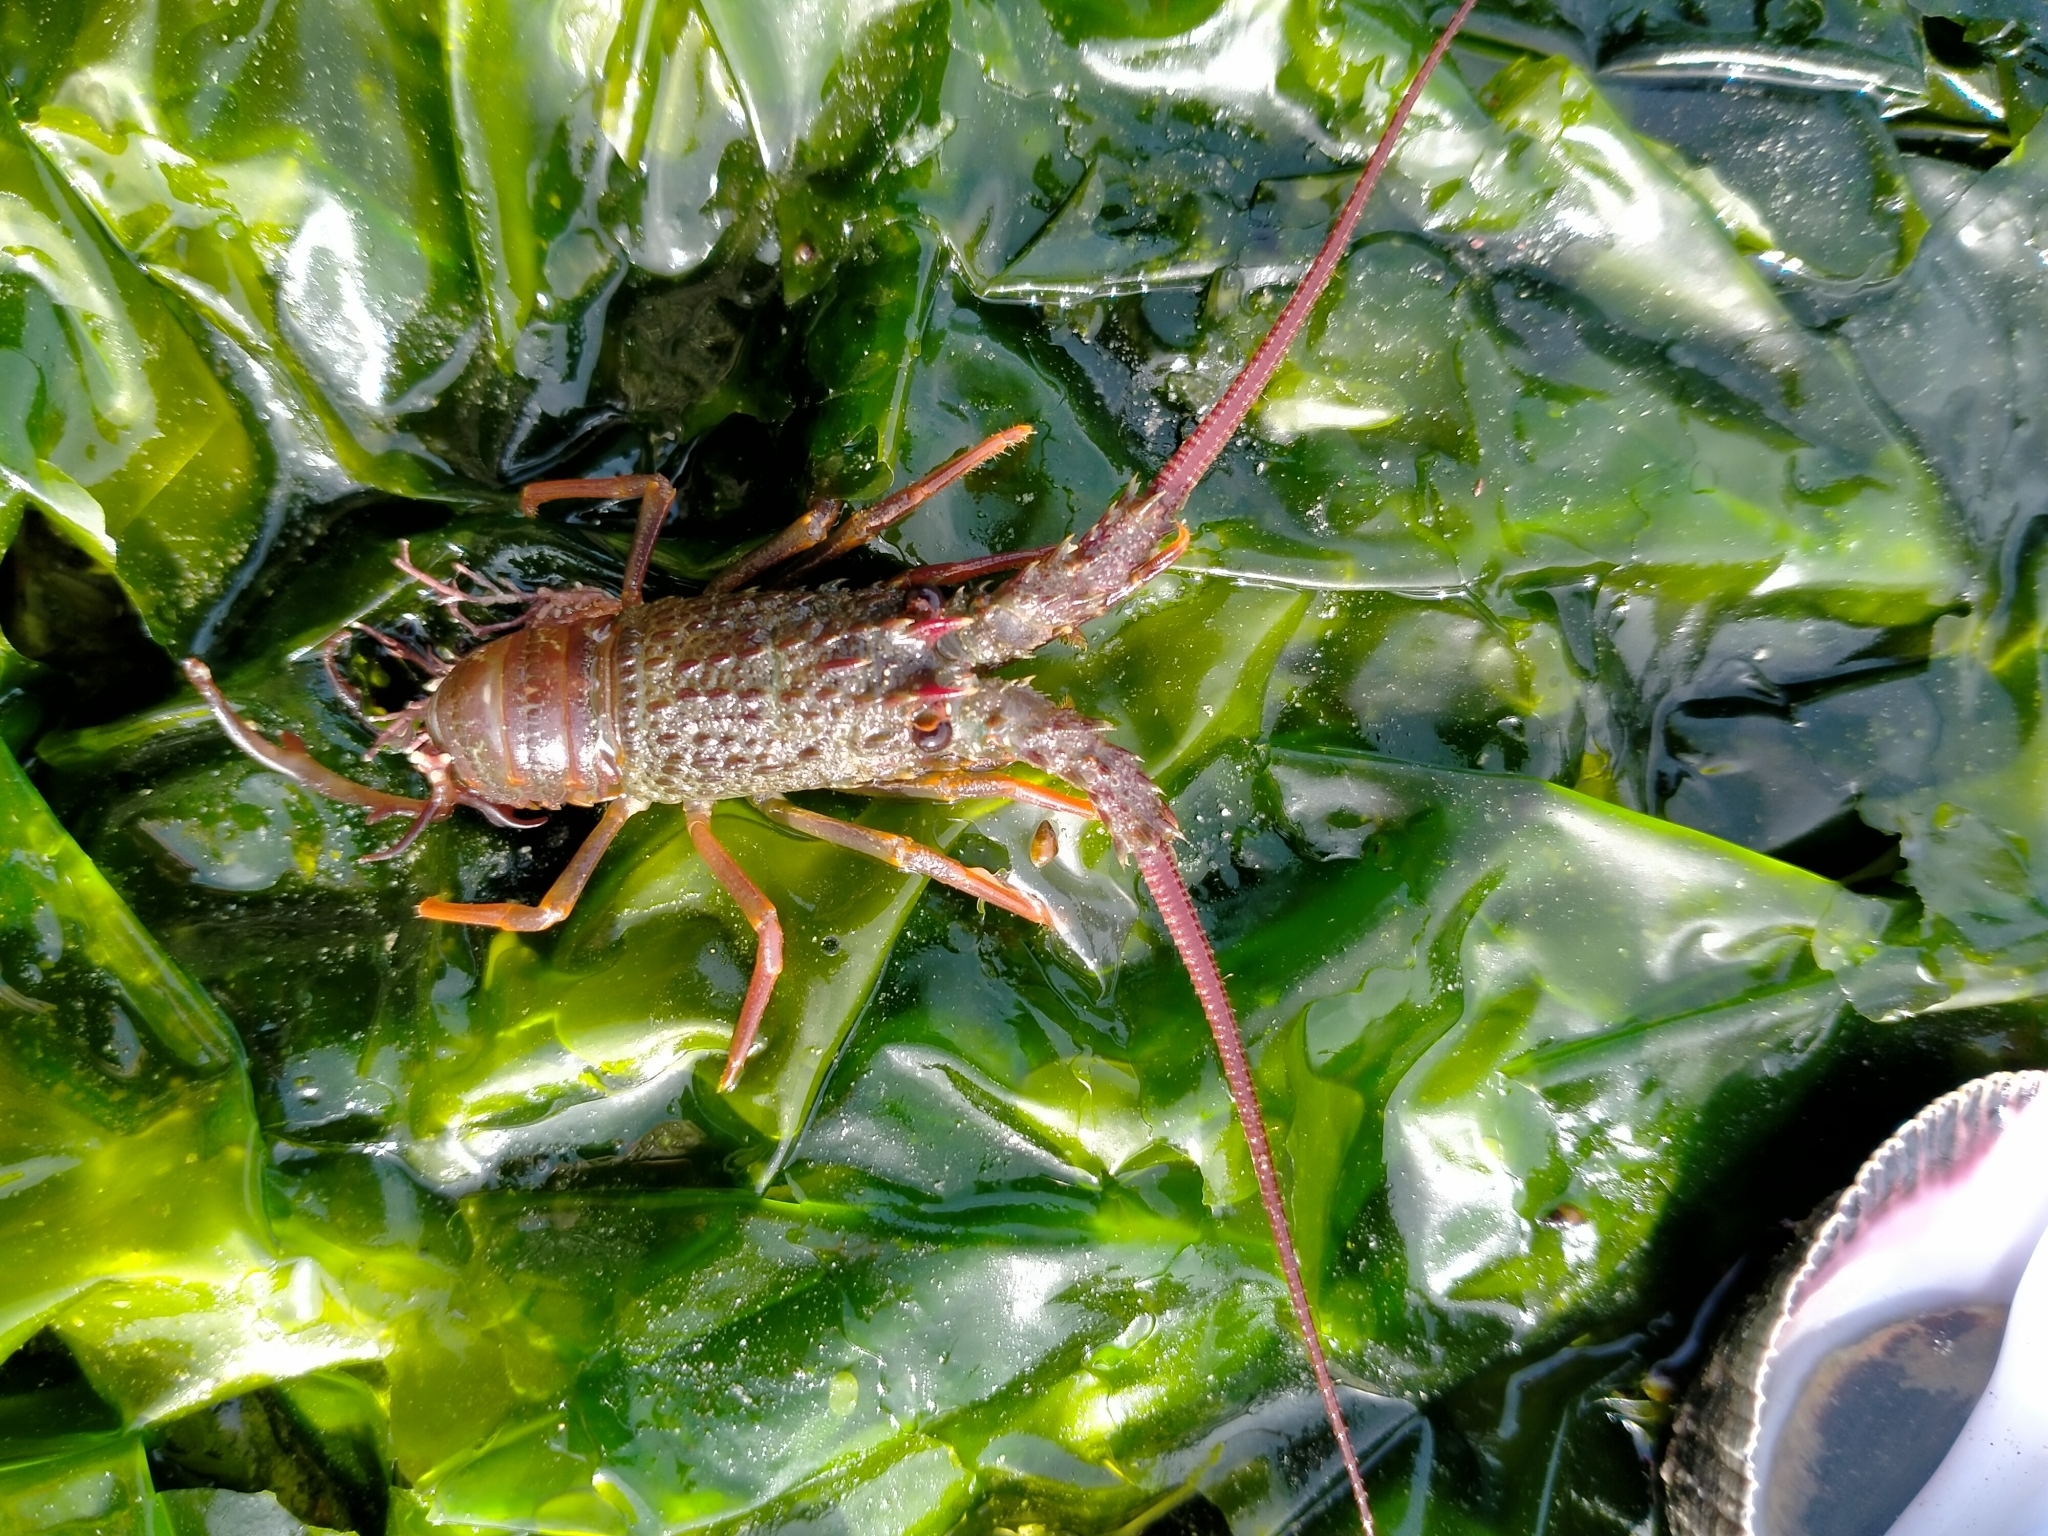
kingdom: Animalia
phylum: Arthropoda
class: Malacostraca
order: Decapoda
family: Palinuridae
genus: Jasus
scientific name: Jasus edwardsii
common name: Red rock lobster
